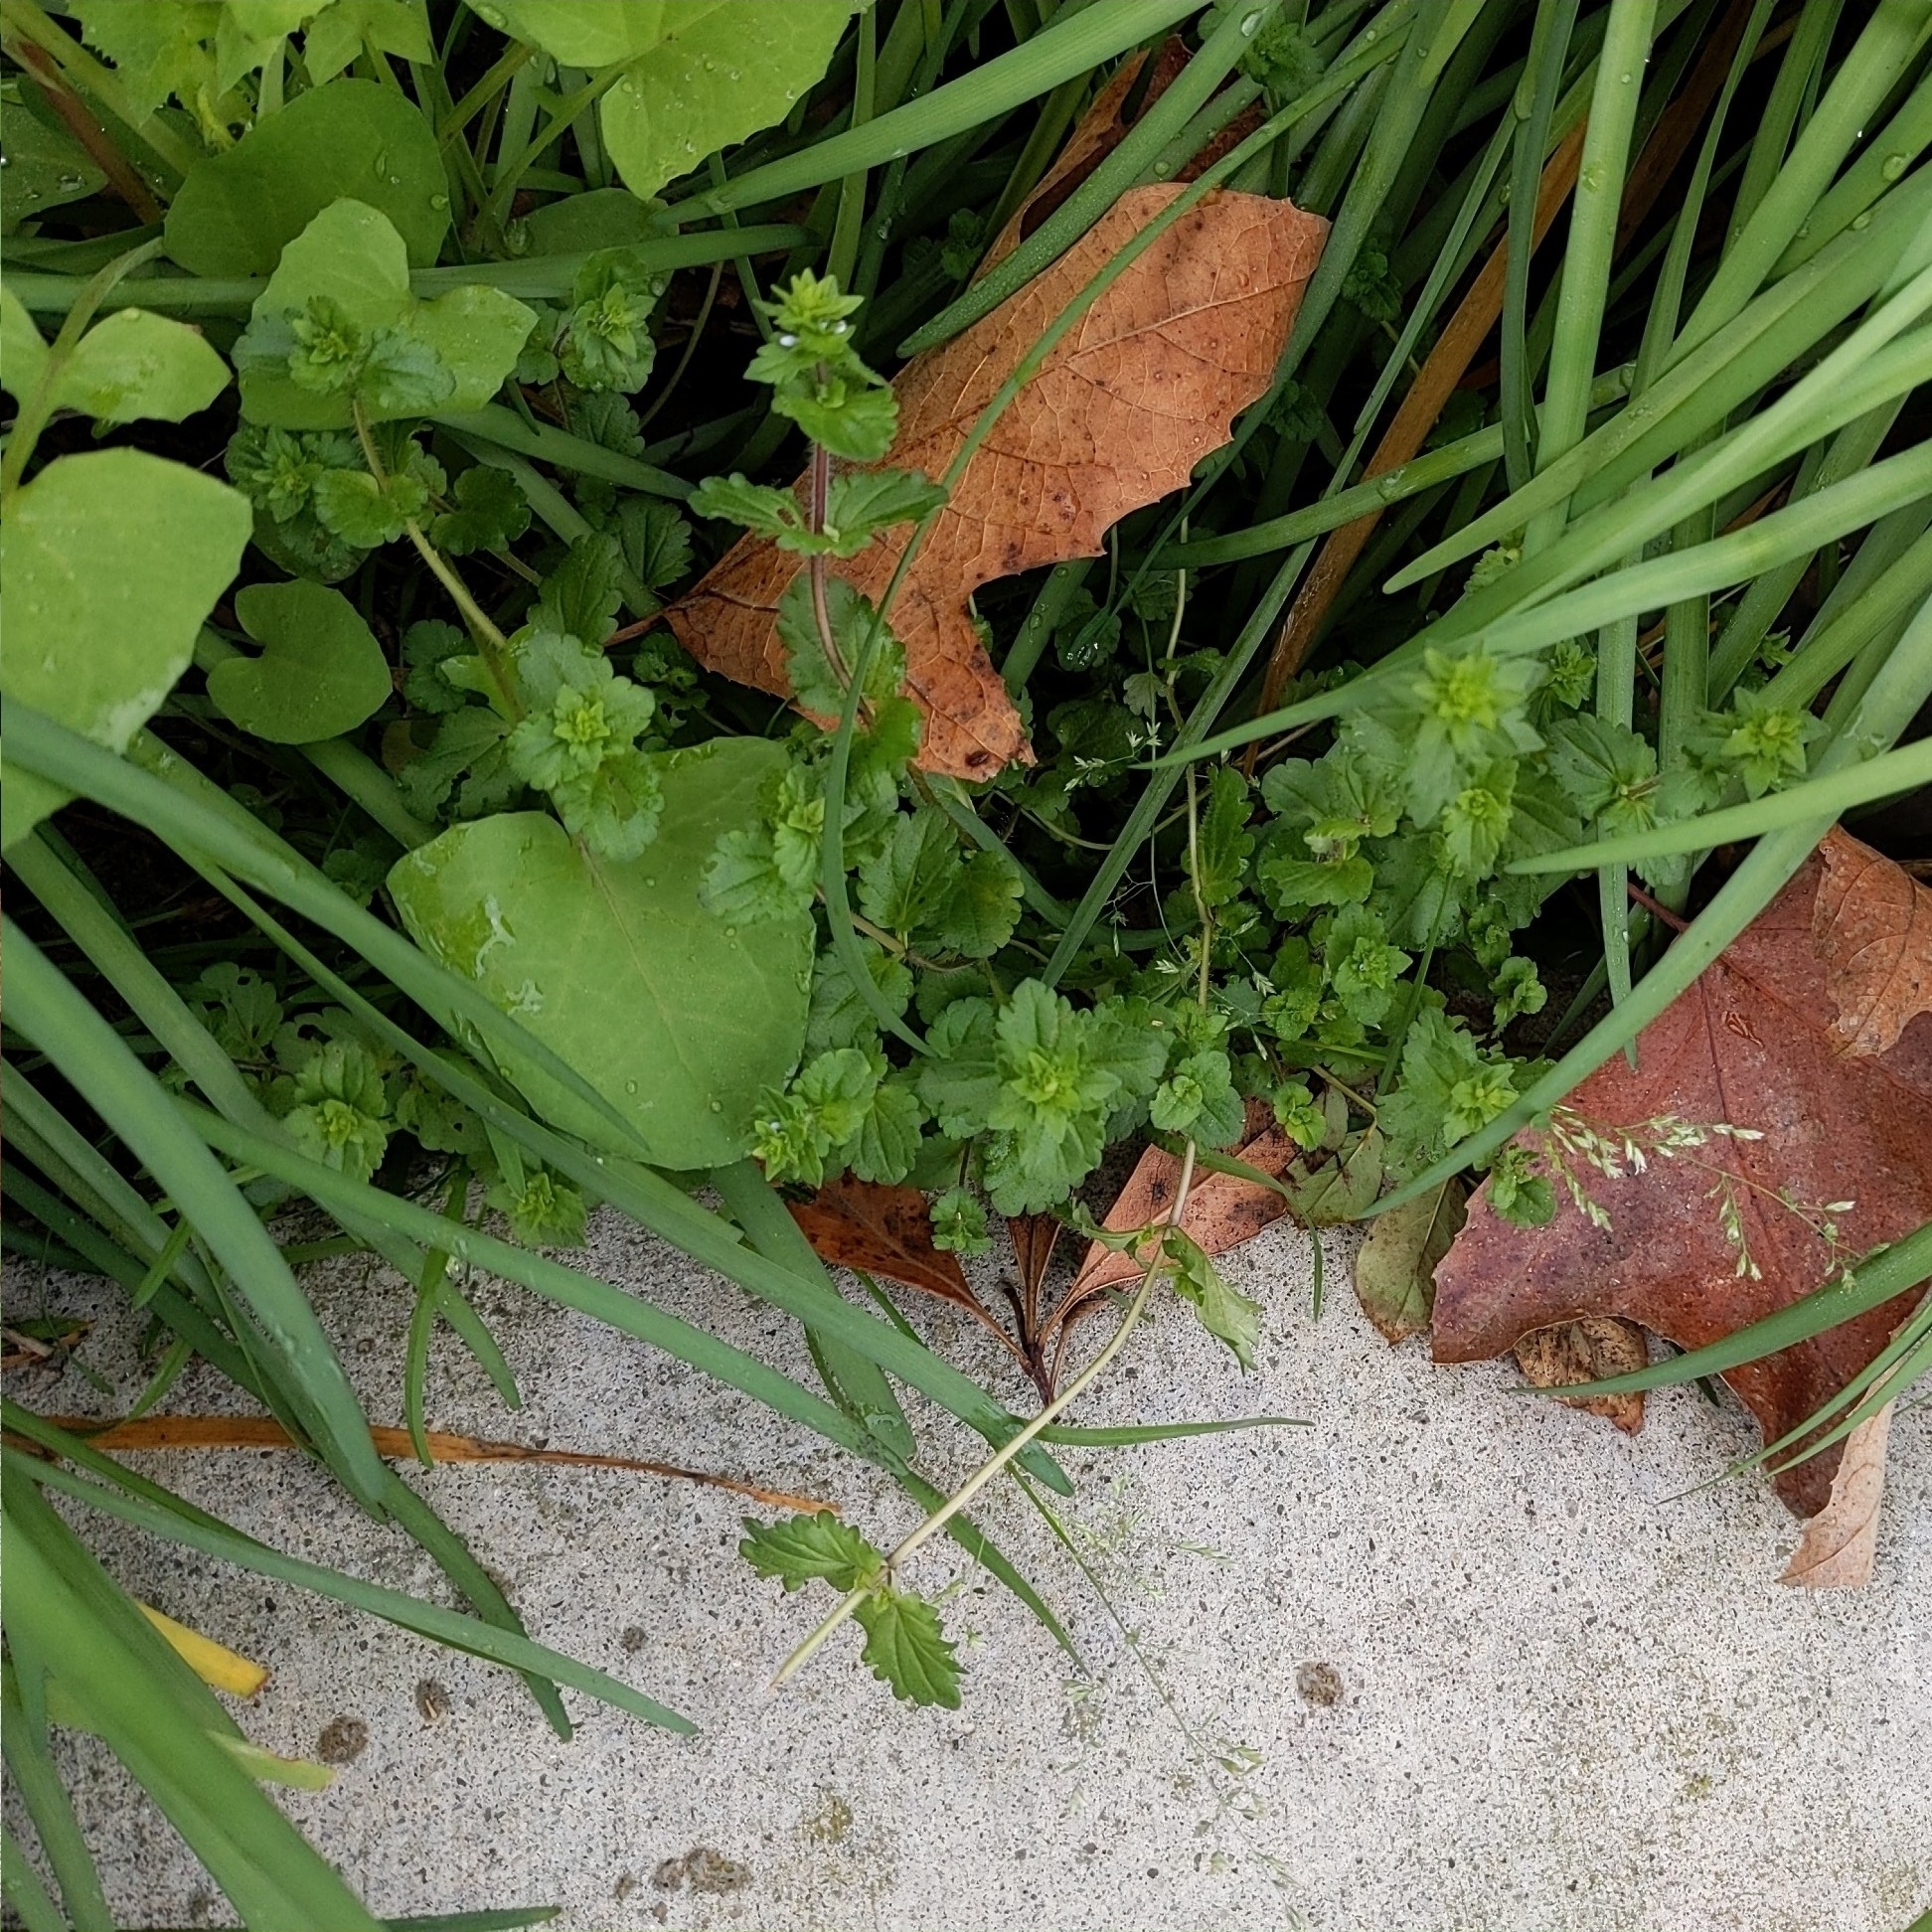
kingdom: Plantae
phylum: Tracheophyta
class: Magnoliopsida
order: Lamiales
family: Plantaginaceae
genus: Veronica
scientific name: Veronica arvensis
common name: Corn speedwell
